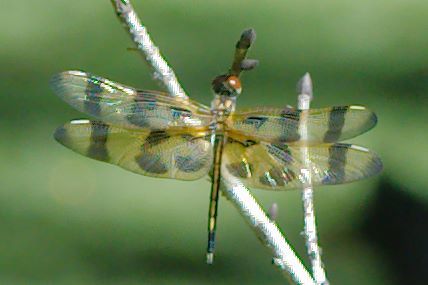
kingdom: Animalia
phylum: Arthropoda
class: Insecta
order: Odonata
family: Libellulidae
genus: Celithemis
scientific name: Celithemis eponina
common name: Halloween pennant
